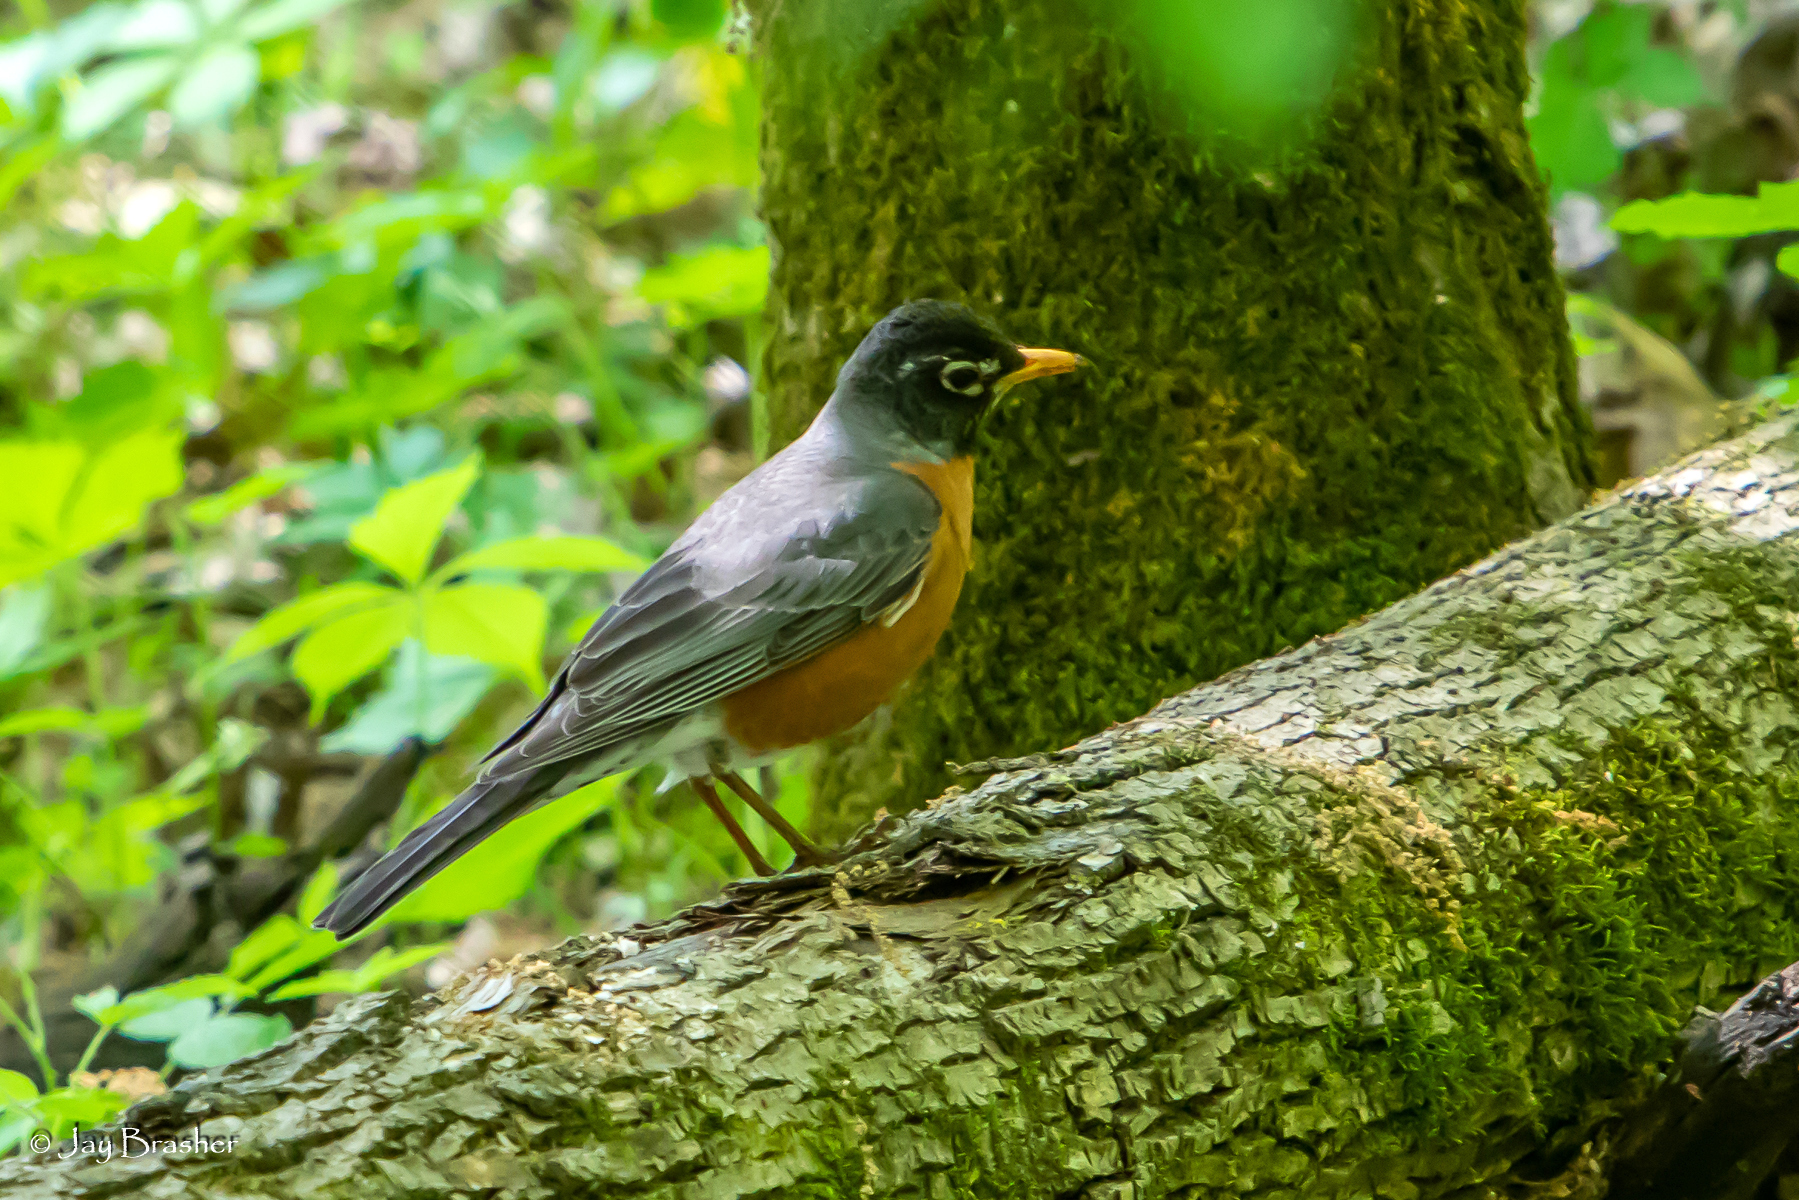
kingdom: Animalia
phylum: Chordata
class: Aves
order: Passeriformes
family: Turdidae
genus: Turdus
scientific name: Turdus migratorius
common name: American robin
